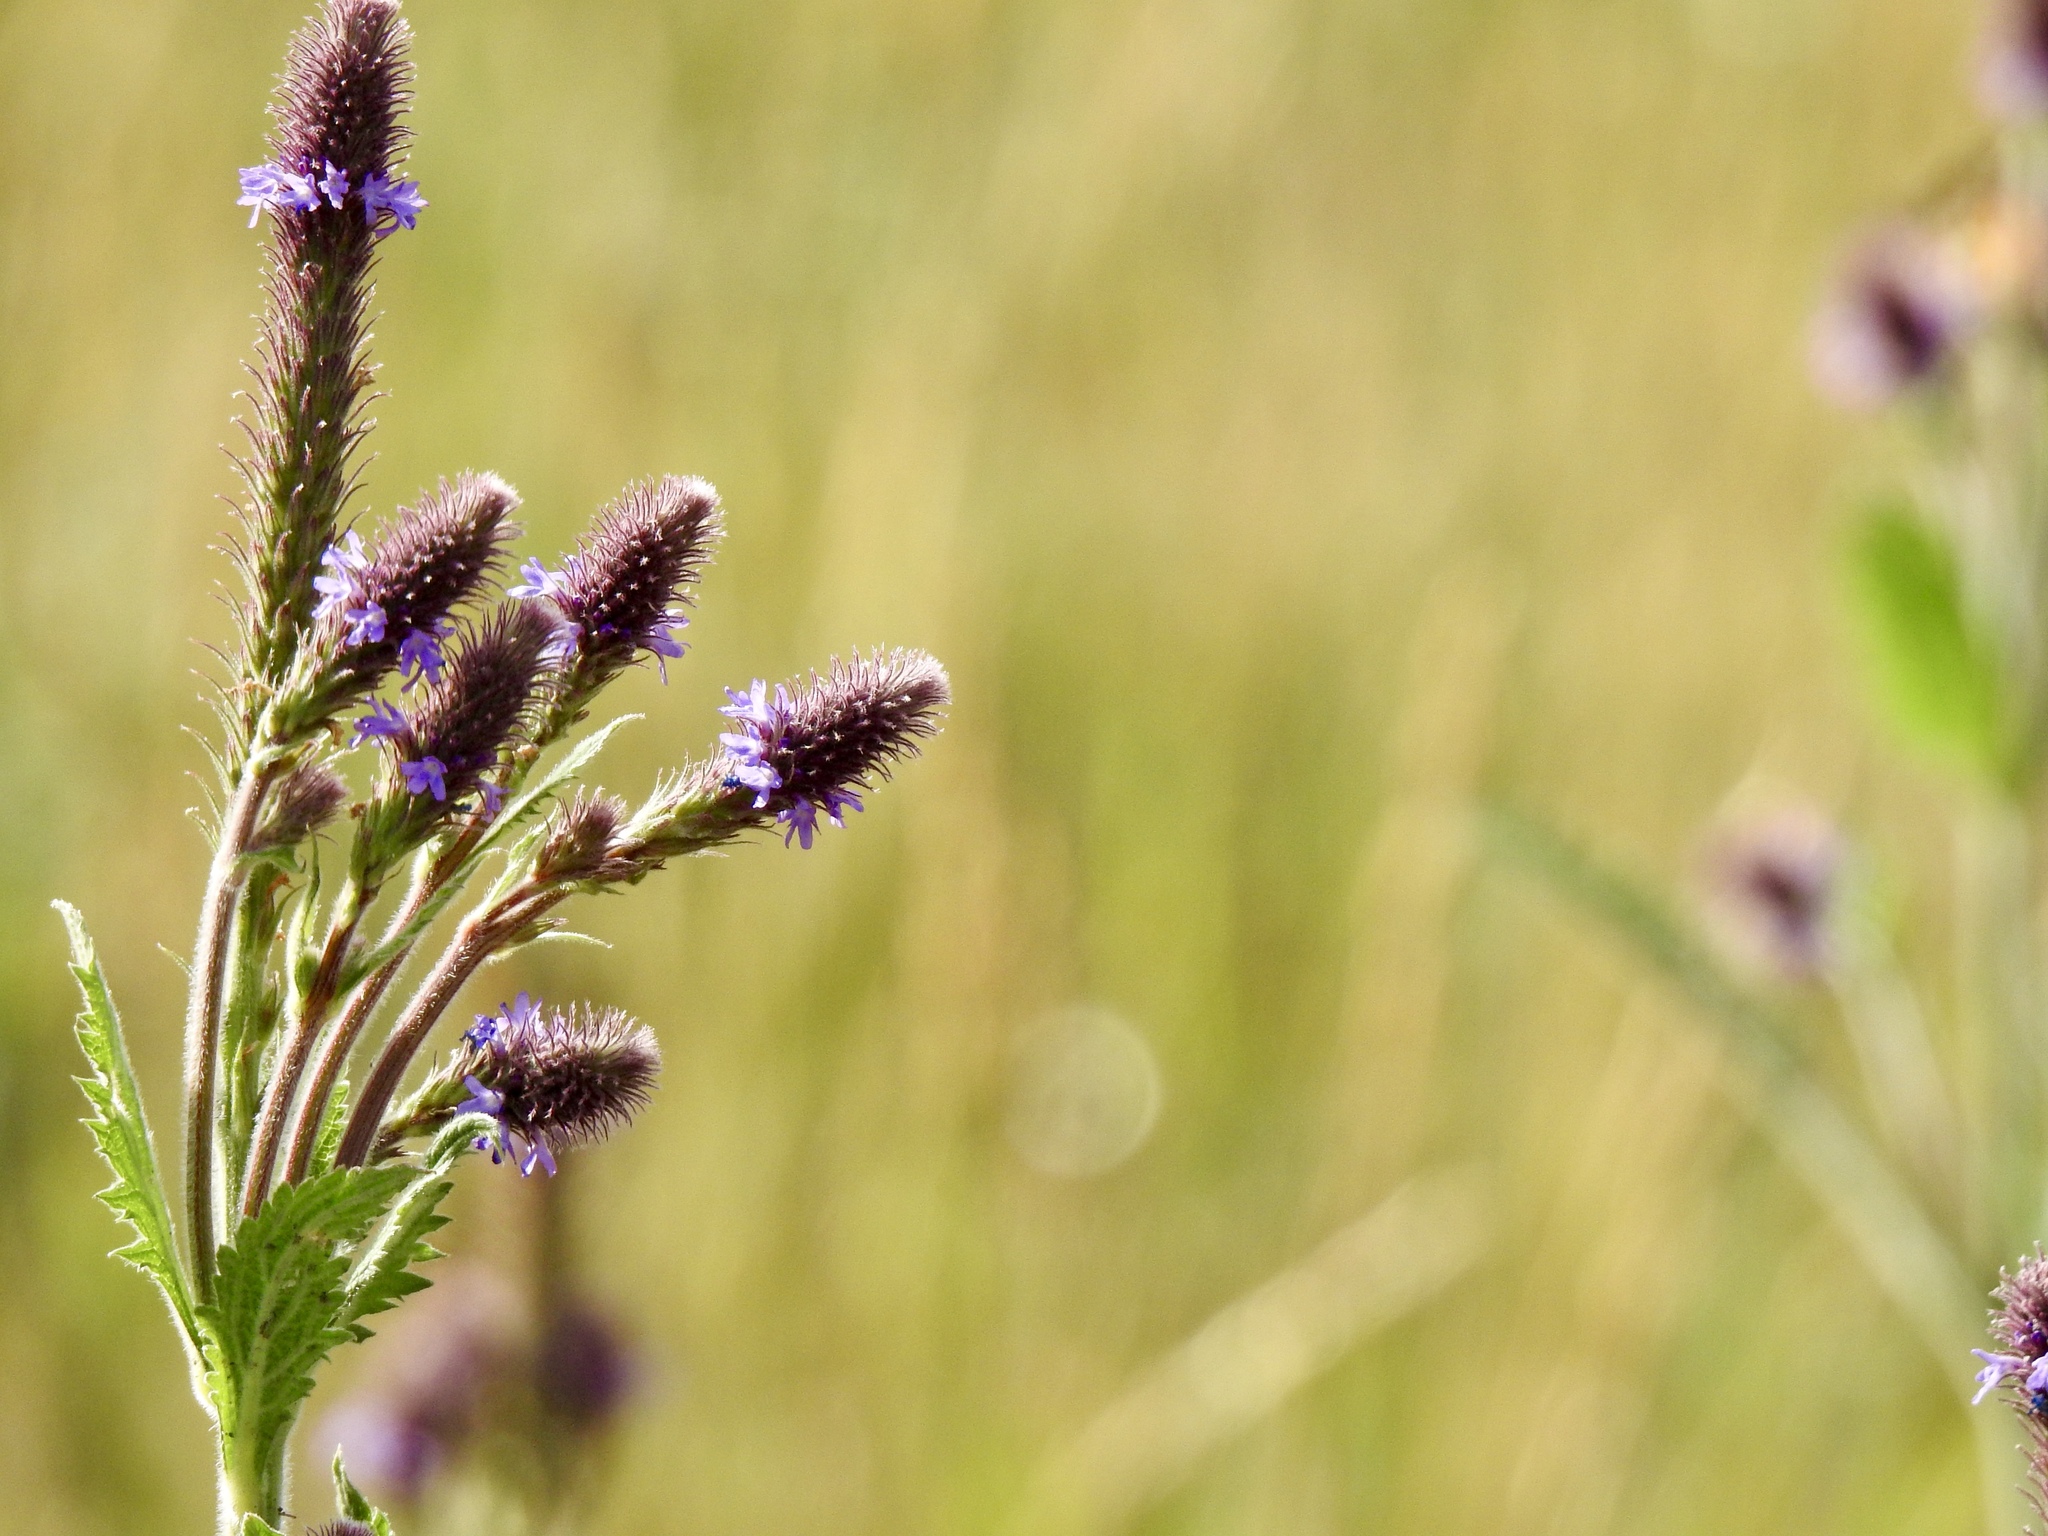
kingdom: Plantae
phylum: Tracheophyta
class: Magnoliopsida
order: Lamiales
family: Verbenaceae
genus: Verbena
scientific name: Verbena macdougalii
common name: New mexico vervain
